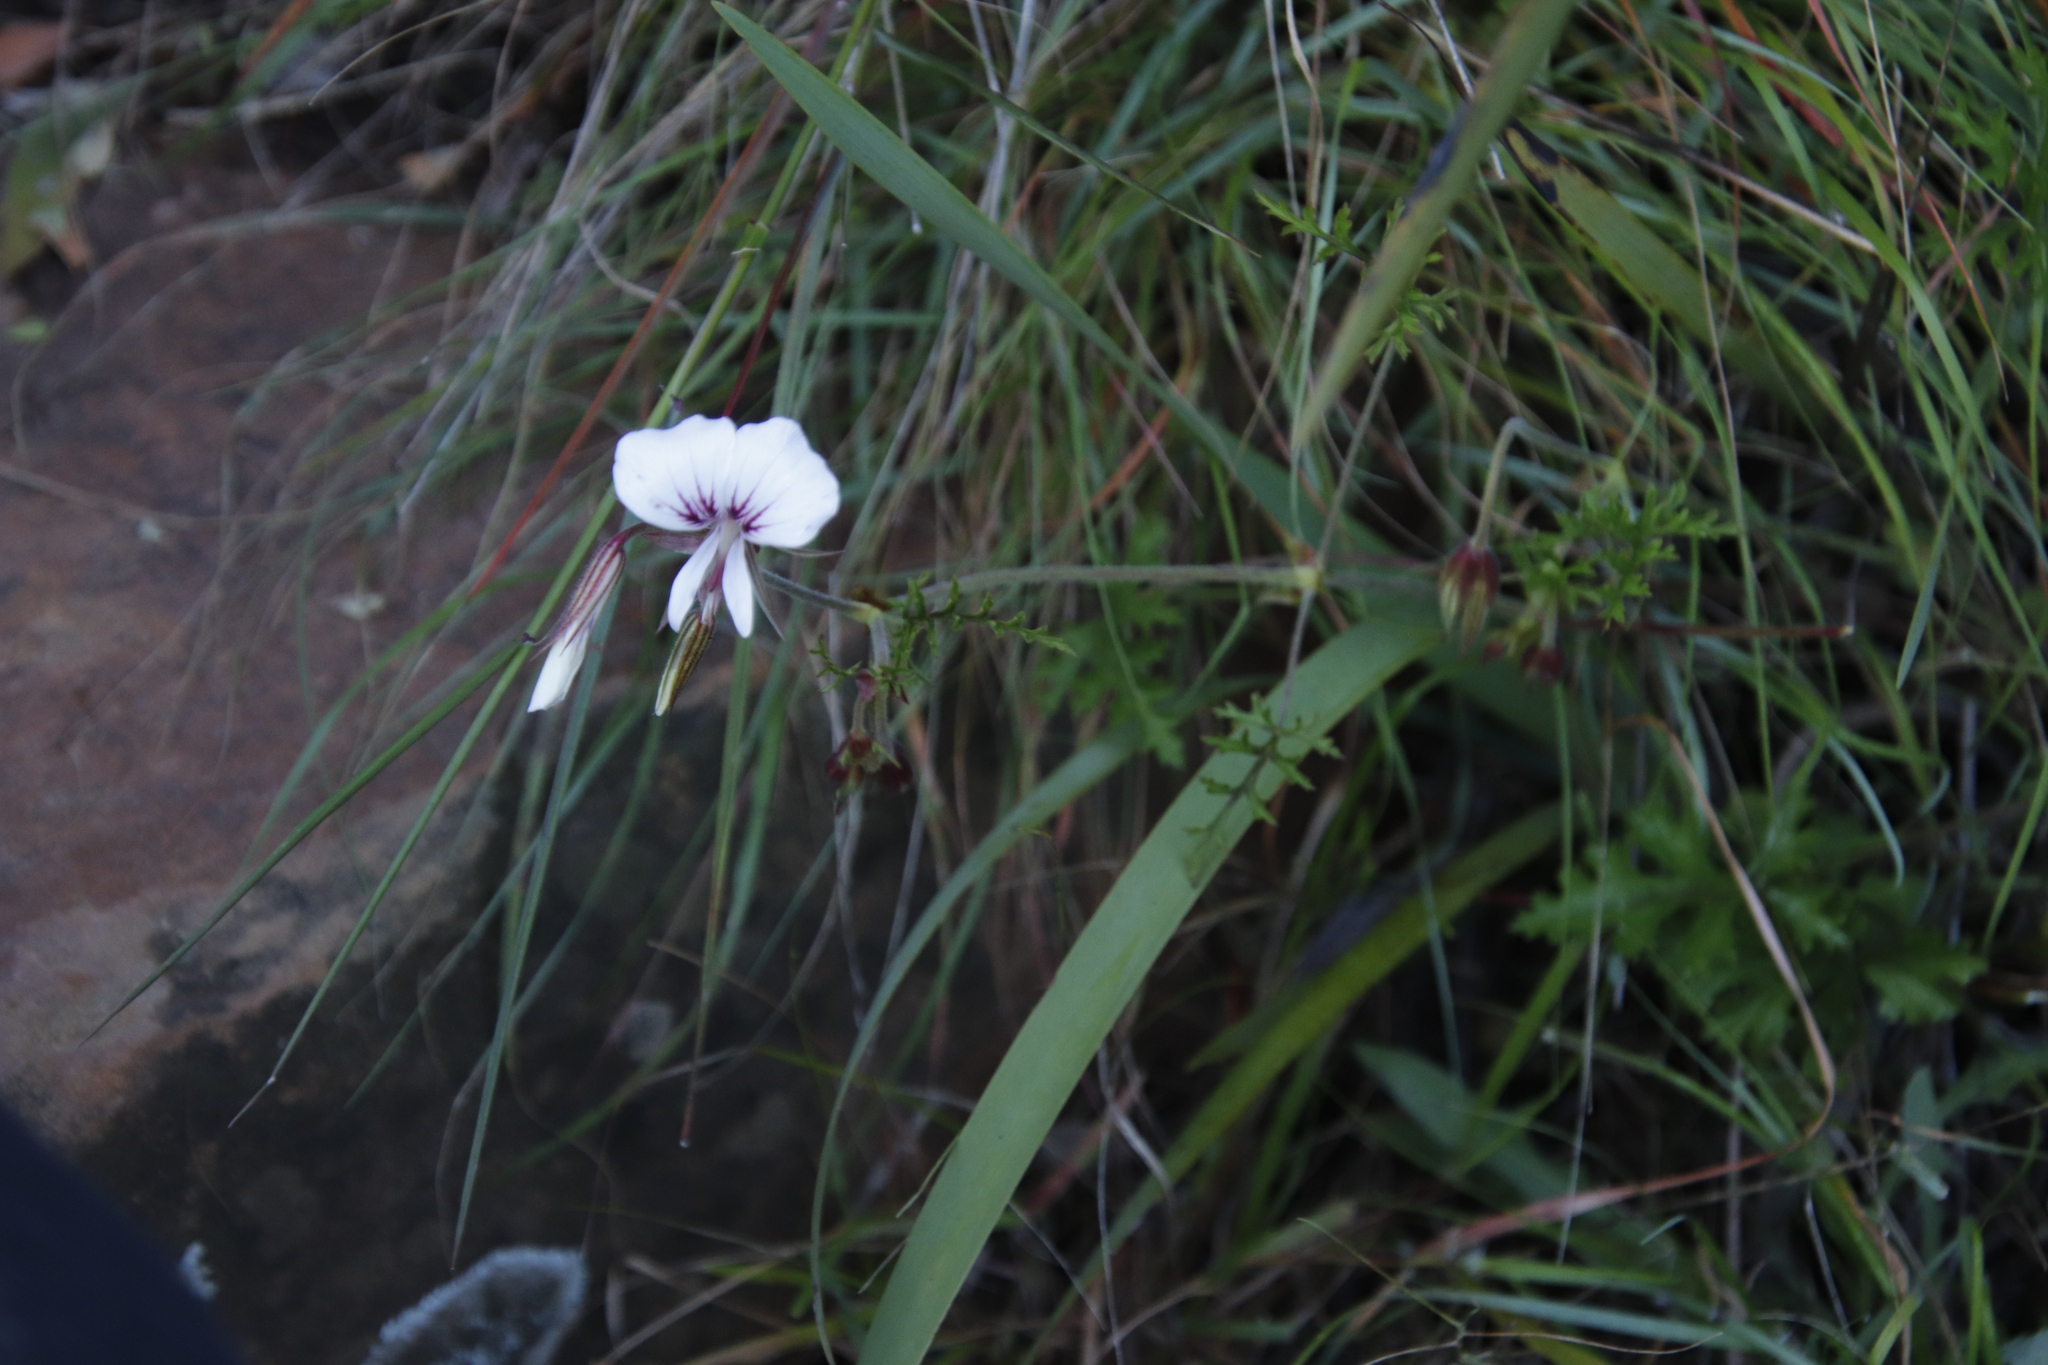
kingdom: Plantae
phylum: Tracheophyta
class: Magnoliopsida
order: Geraniales
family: Geraniaceae
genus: Pelargonium
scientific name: Pelargonium longicaule
